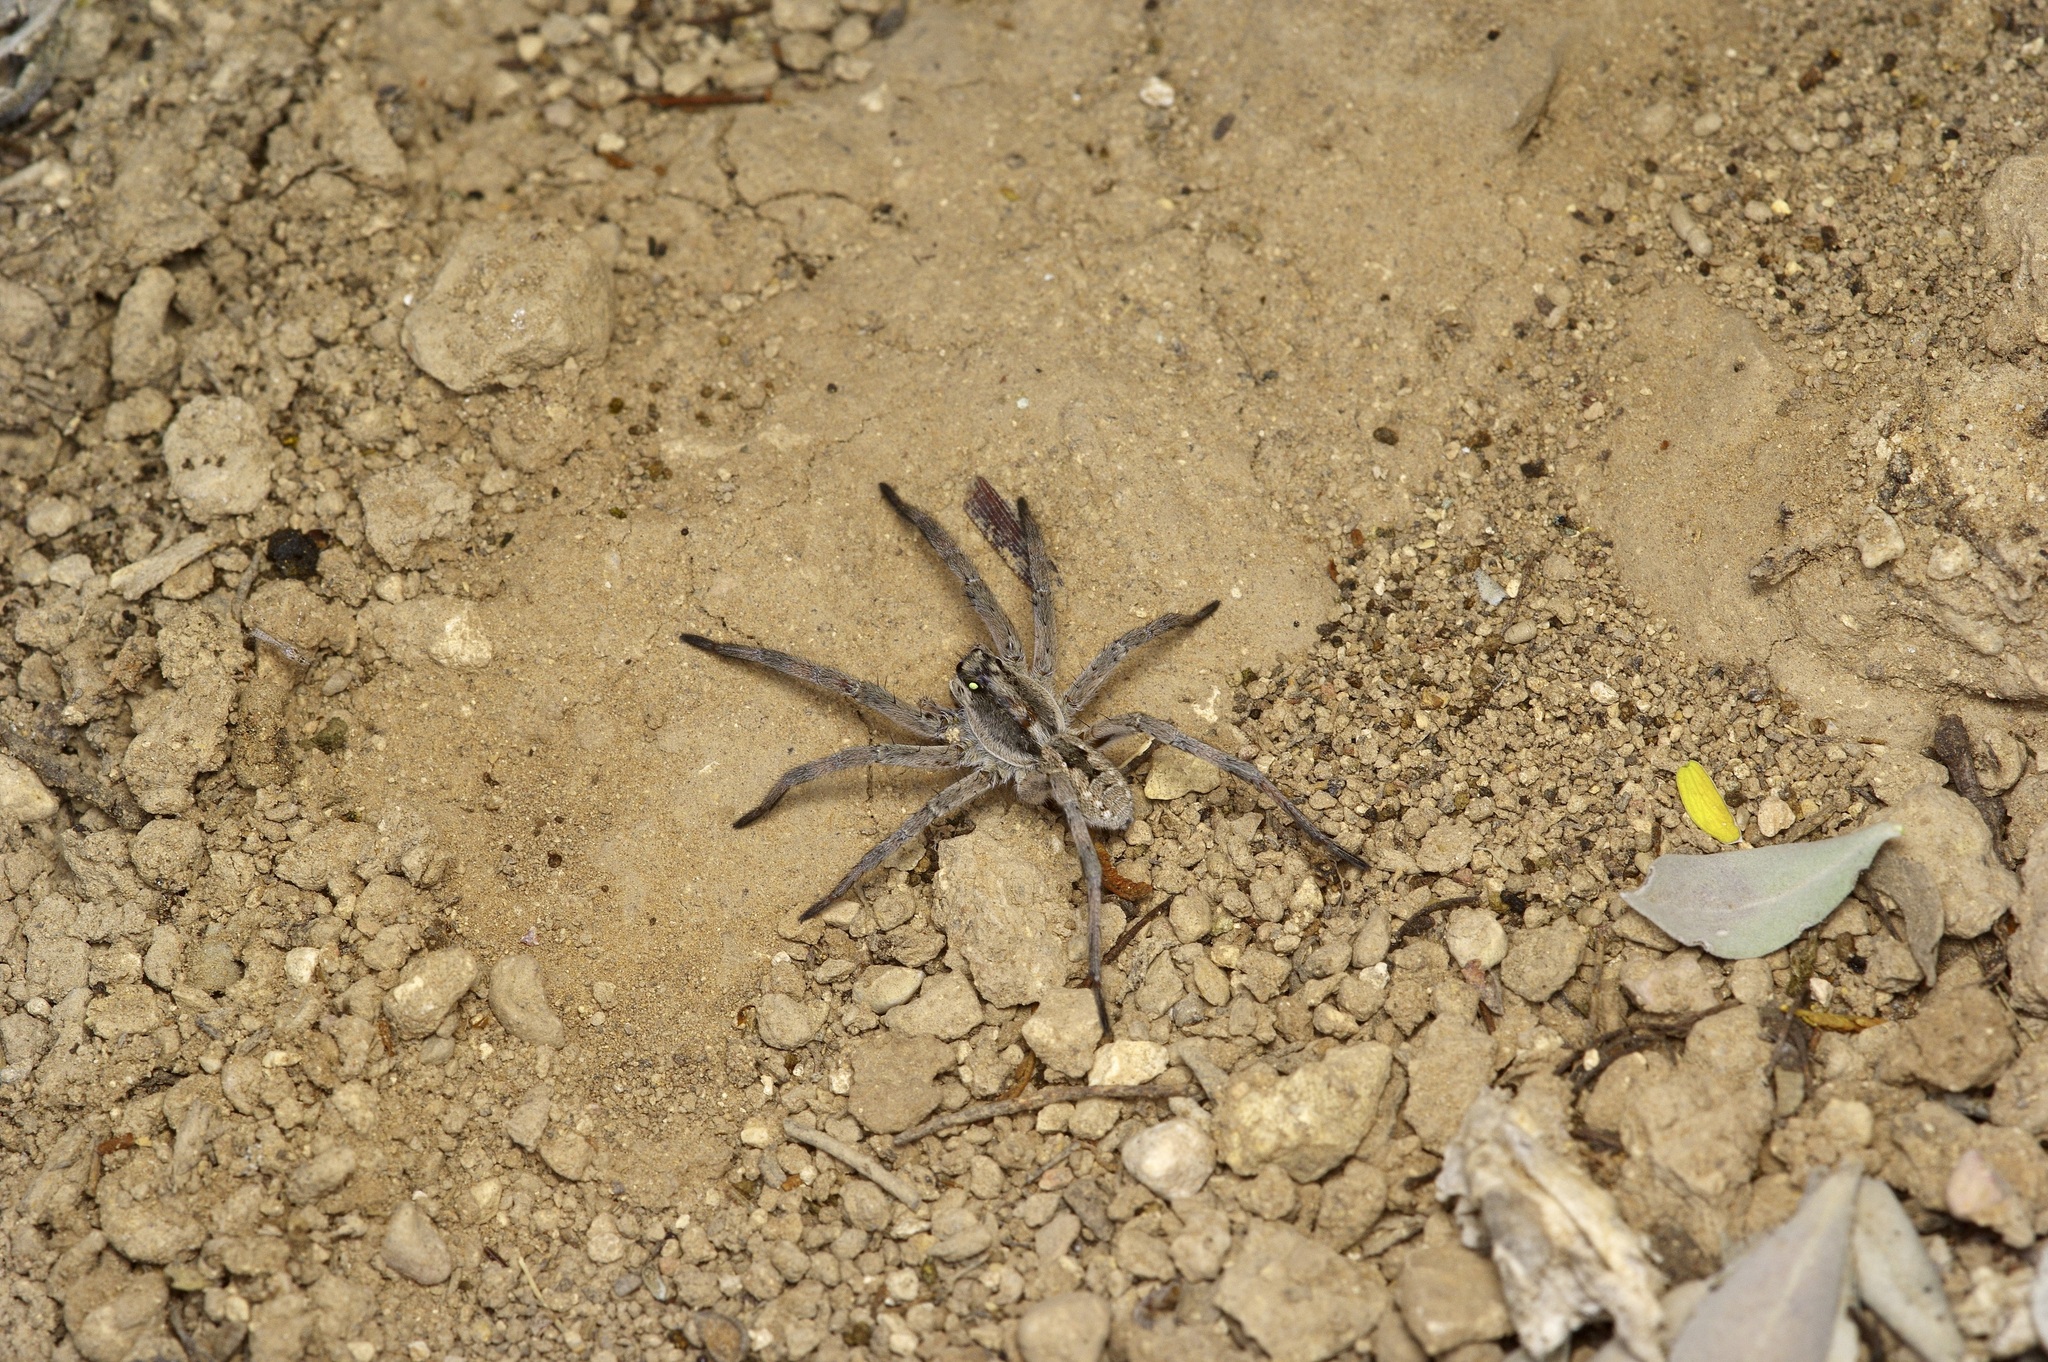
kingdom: Animalia
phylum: Arthropoda
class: Arachnida
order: Araneae
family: Lycosidae
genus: Hogna
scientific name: Hogna carolinensis
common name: Carolina wolf spider
